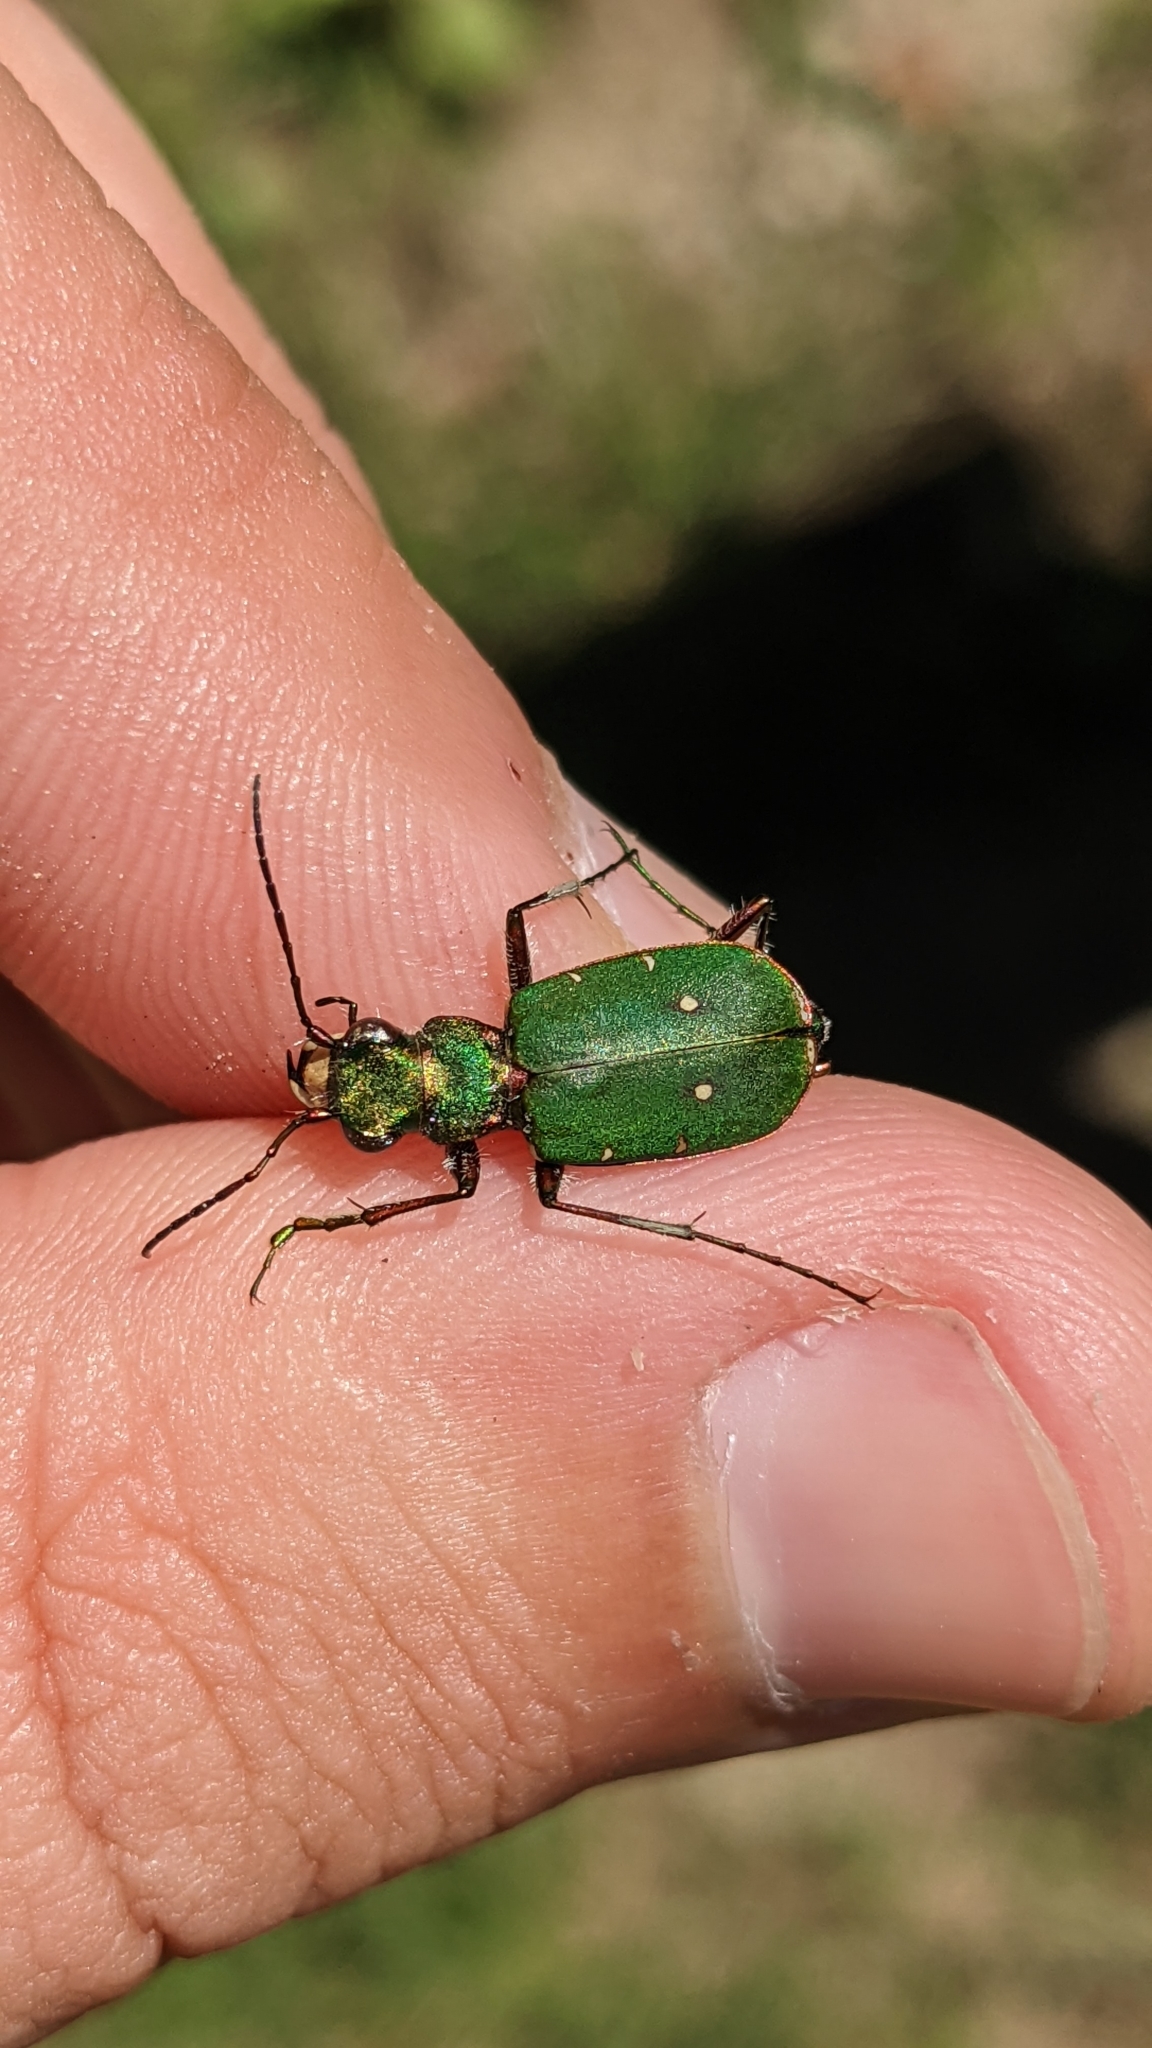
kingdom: Animalia
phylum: Arthropoda
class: Insecta
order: Coleoptera
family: Carabidae
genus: Cicindela
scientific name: Cicindela campestris
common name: Common tiger beetle
